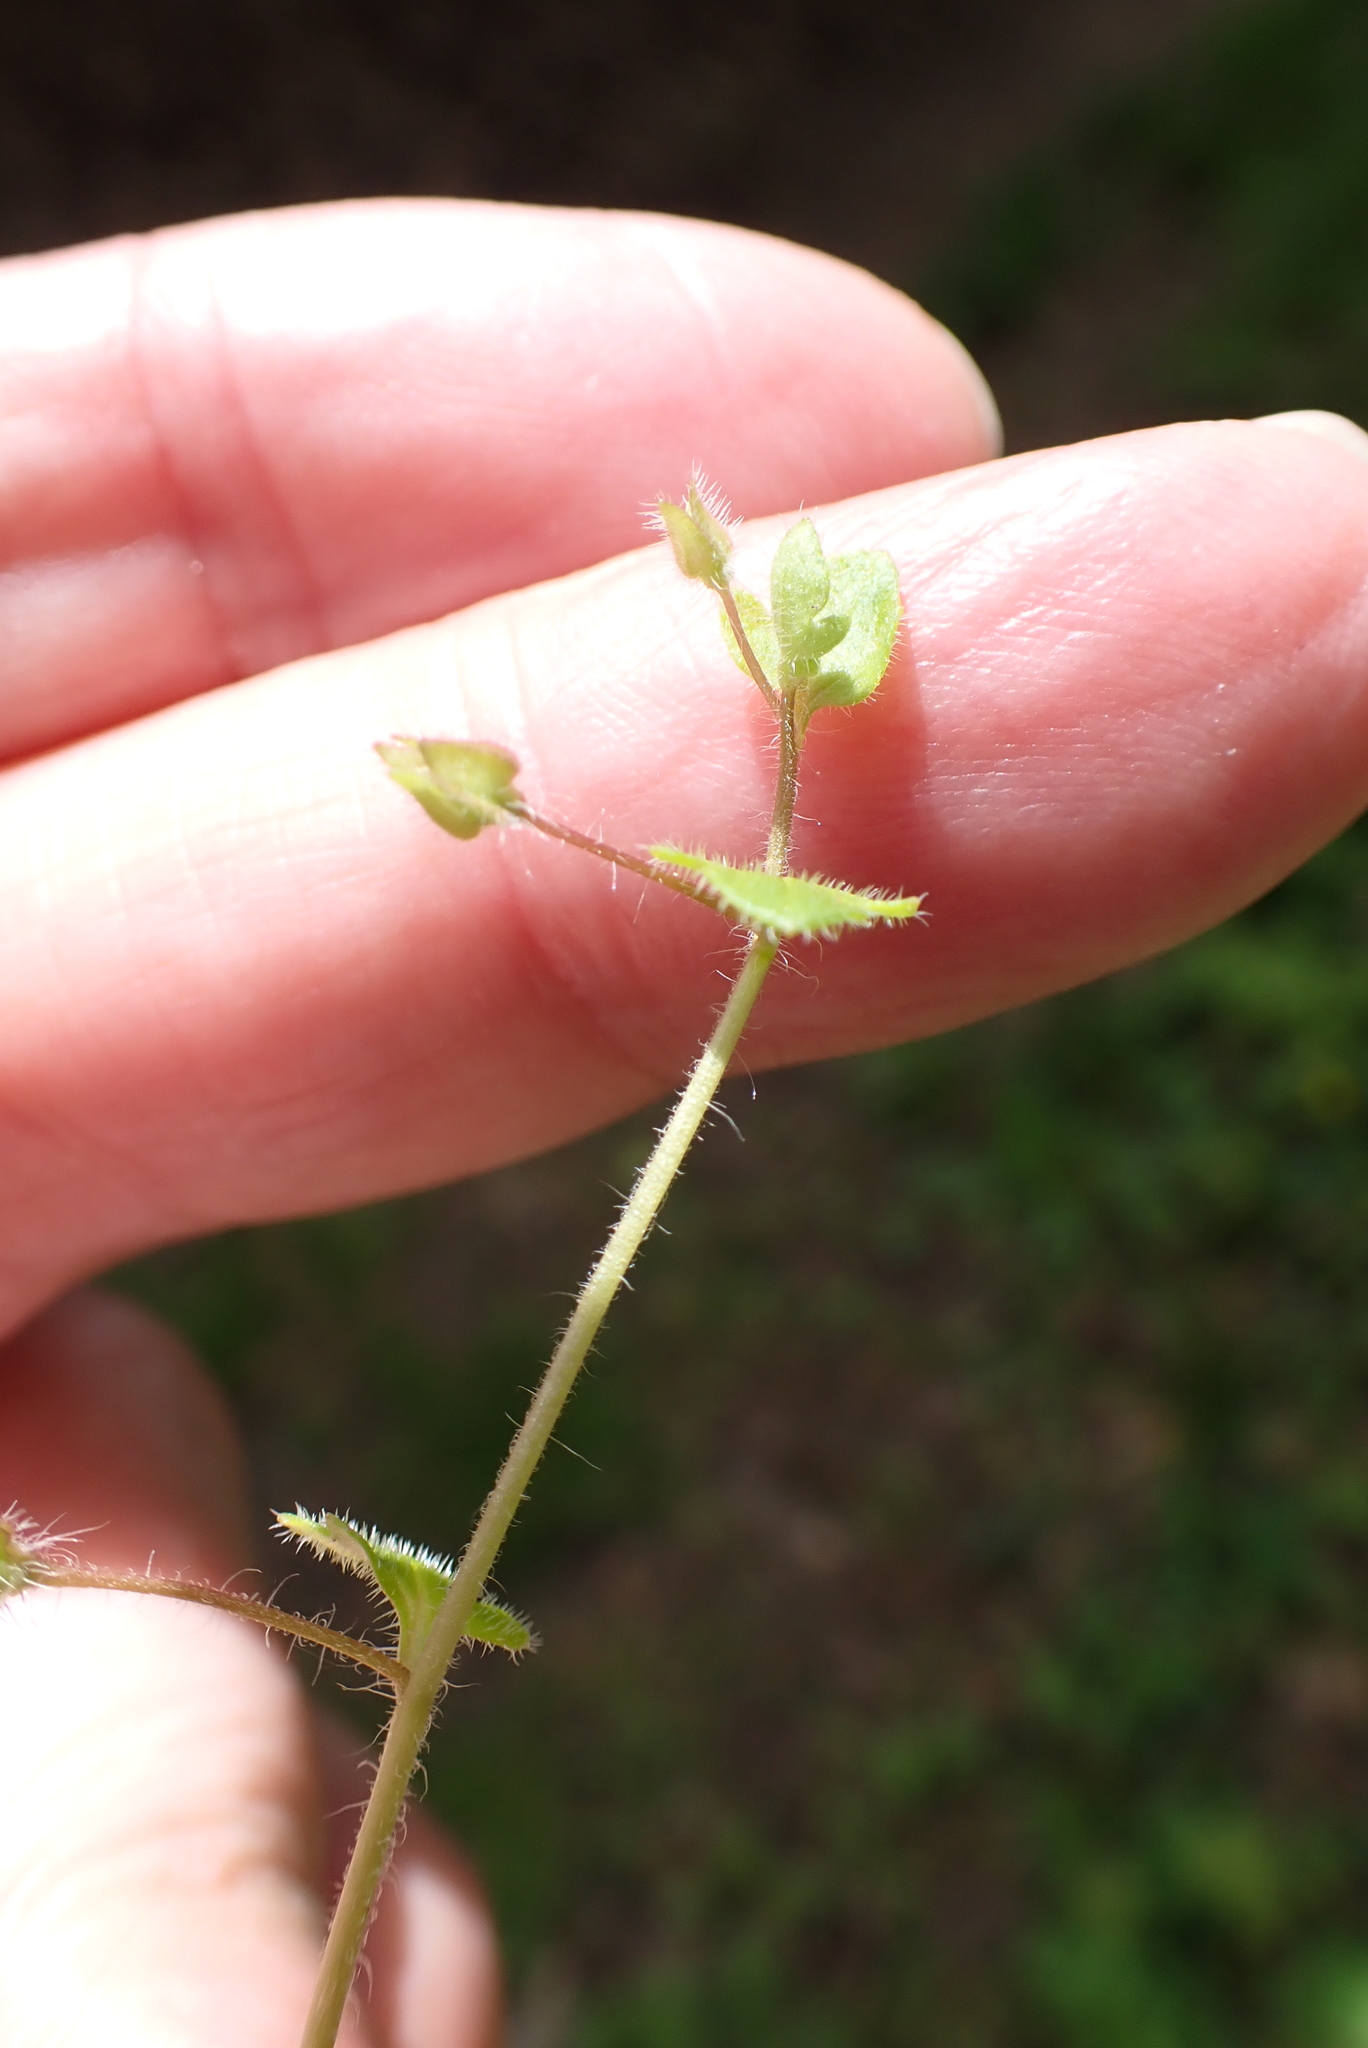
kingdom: Plantae
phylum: Tracheophyta
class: Magnoliopsida
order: Lamiales
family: Plantaginaceae
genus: Veronica
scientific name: Veronica sublobata
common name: False ivy-leaved speedwell
